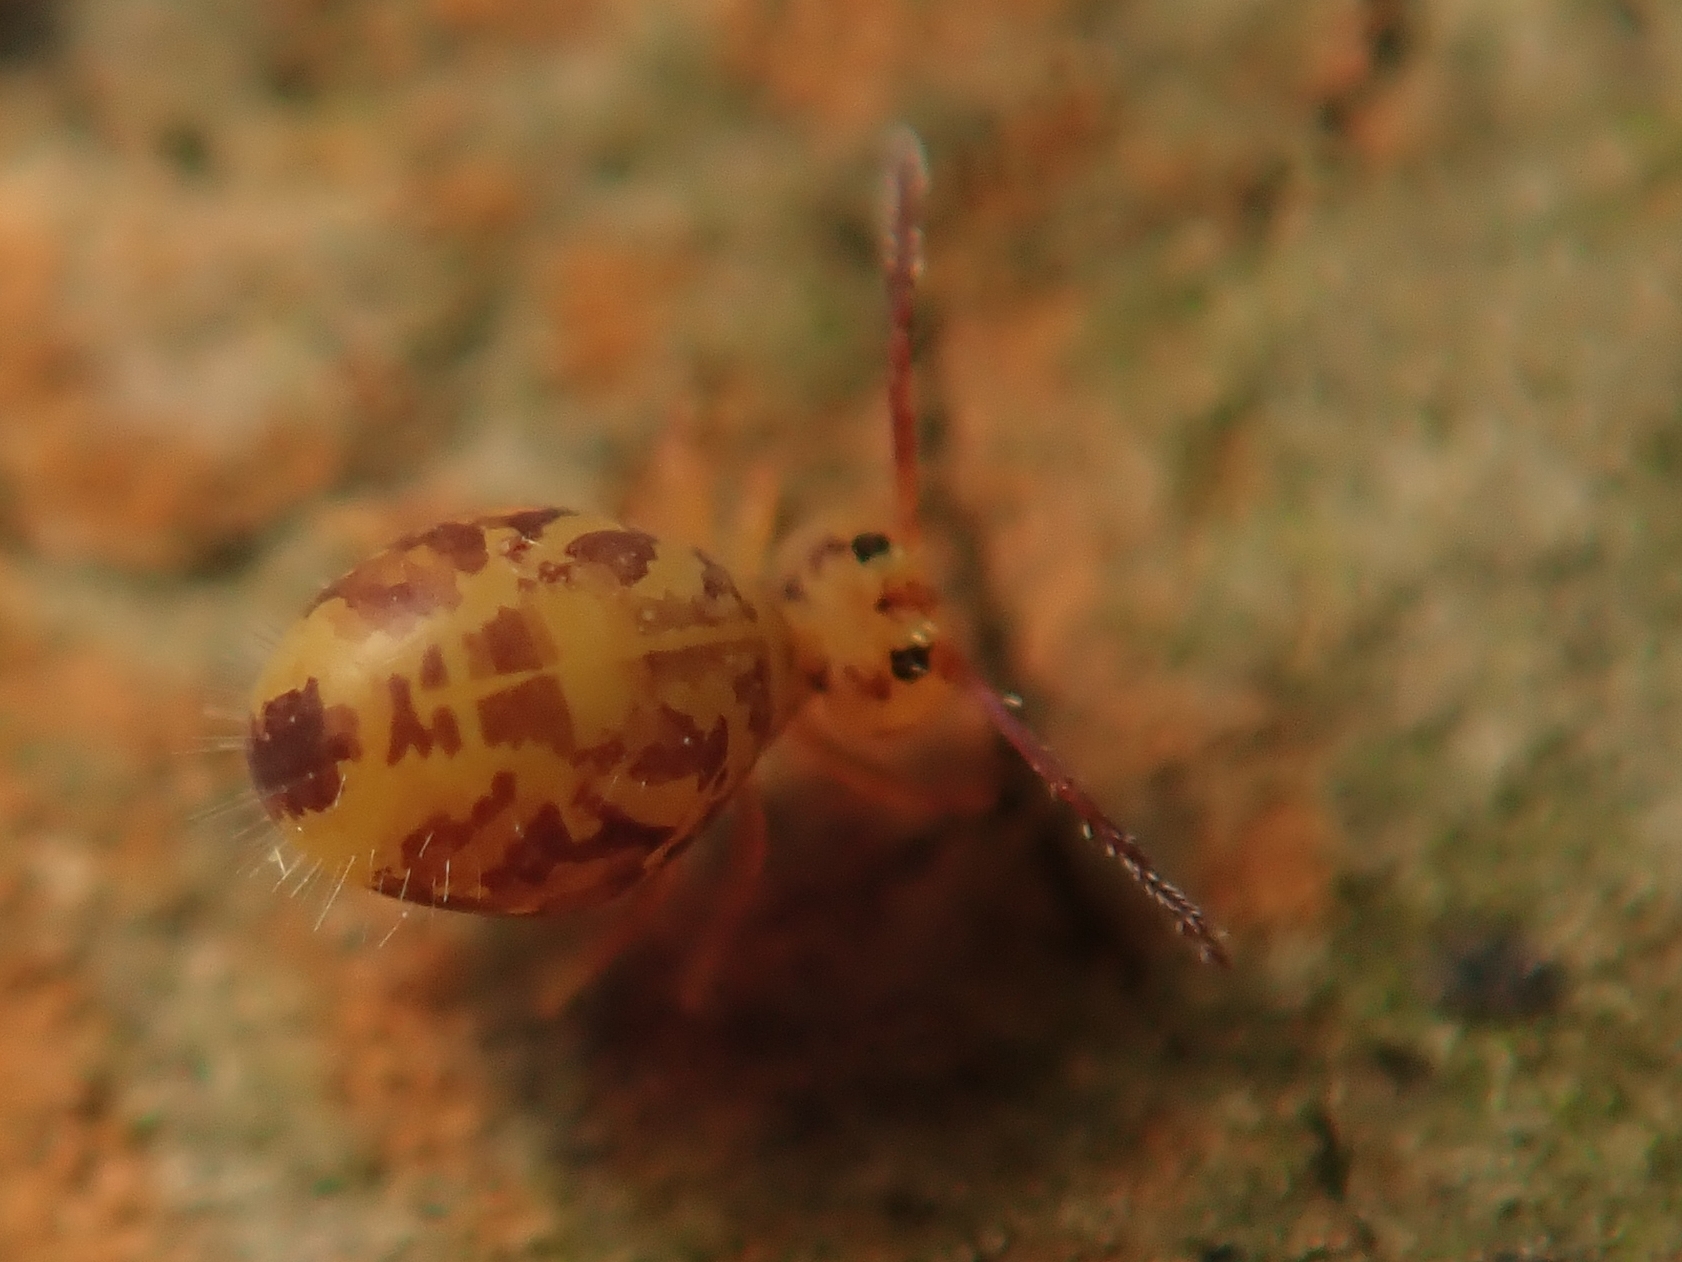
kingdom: Animalia
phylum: Arthropoda
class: Collembola
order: Symphypleona
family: Dicyrtomidae
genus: Dicyrtomina
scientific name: Dicyrtomina ornata
